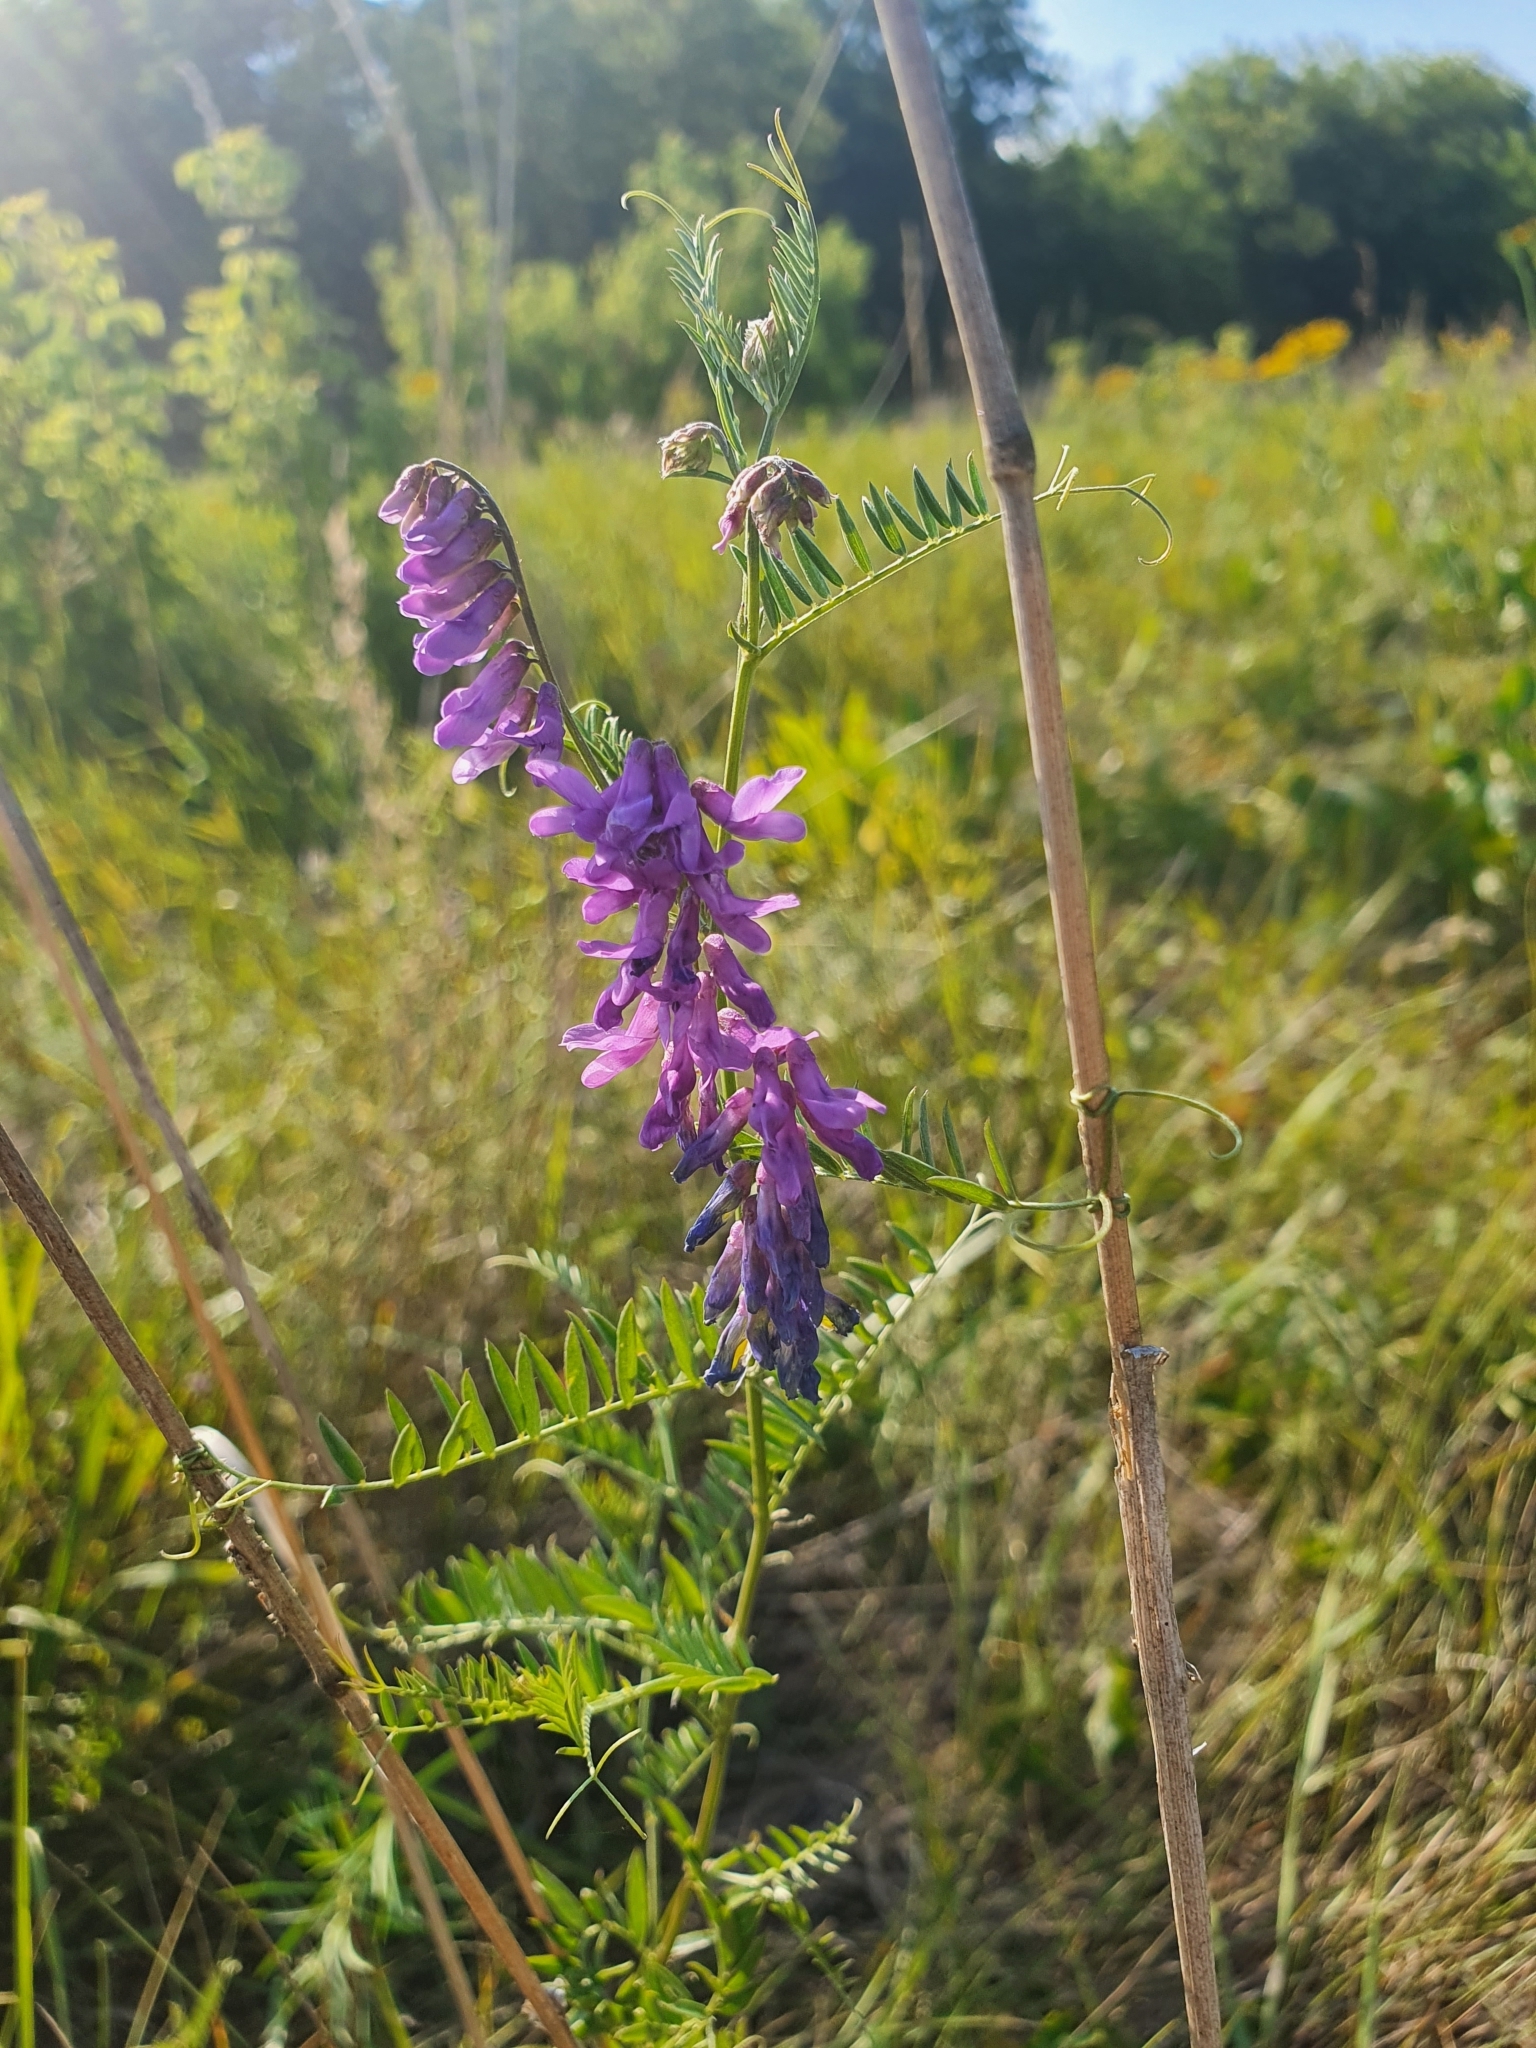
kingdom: Plantae
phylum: Tracheophyta
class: Magnoliopsida
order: Fabales
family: Fabaceae
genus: Vicia
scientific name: Vicia cracca
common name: Bird vetch
